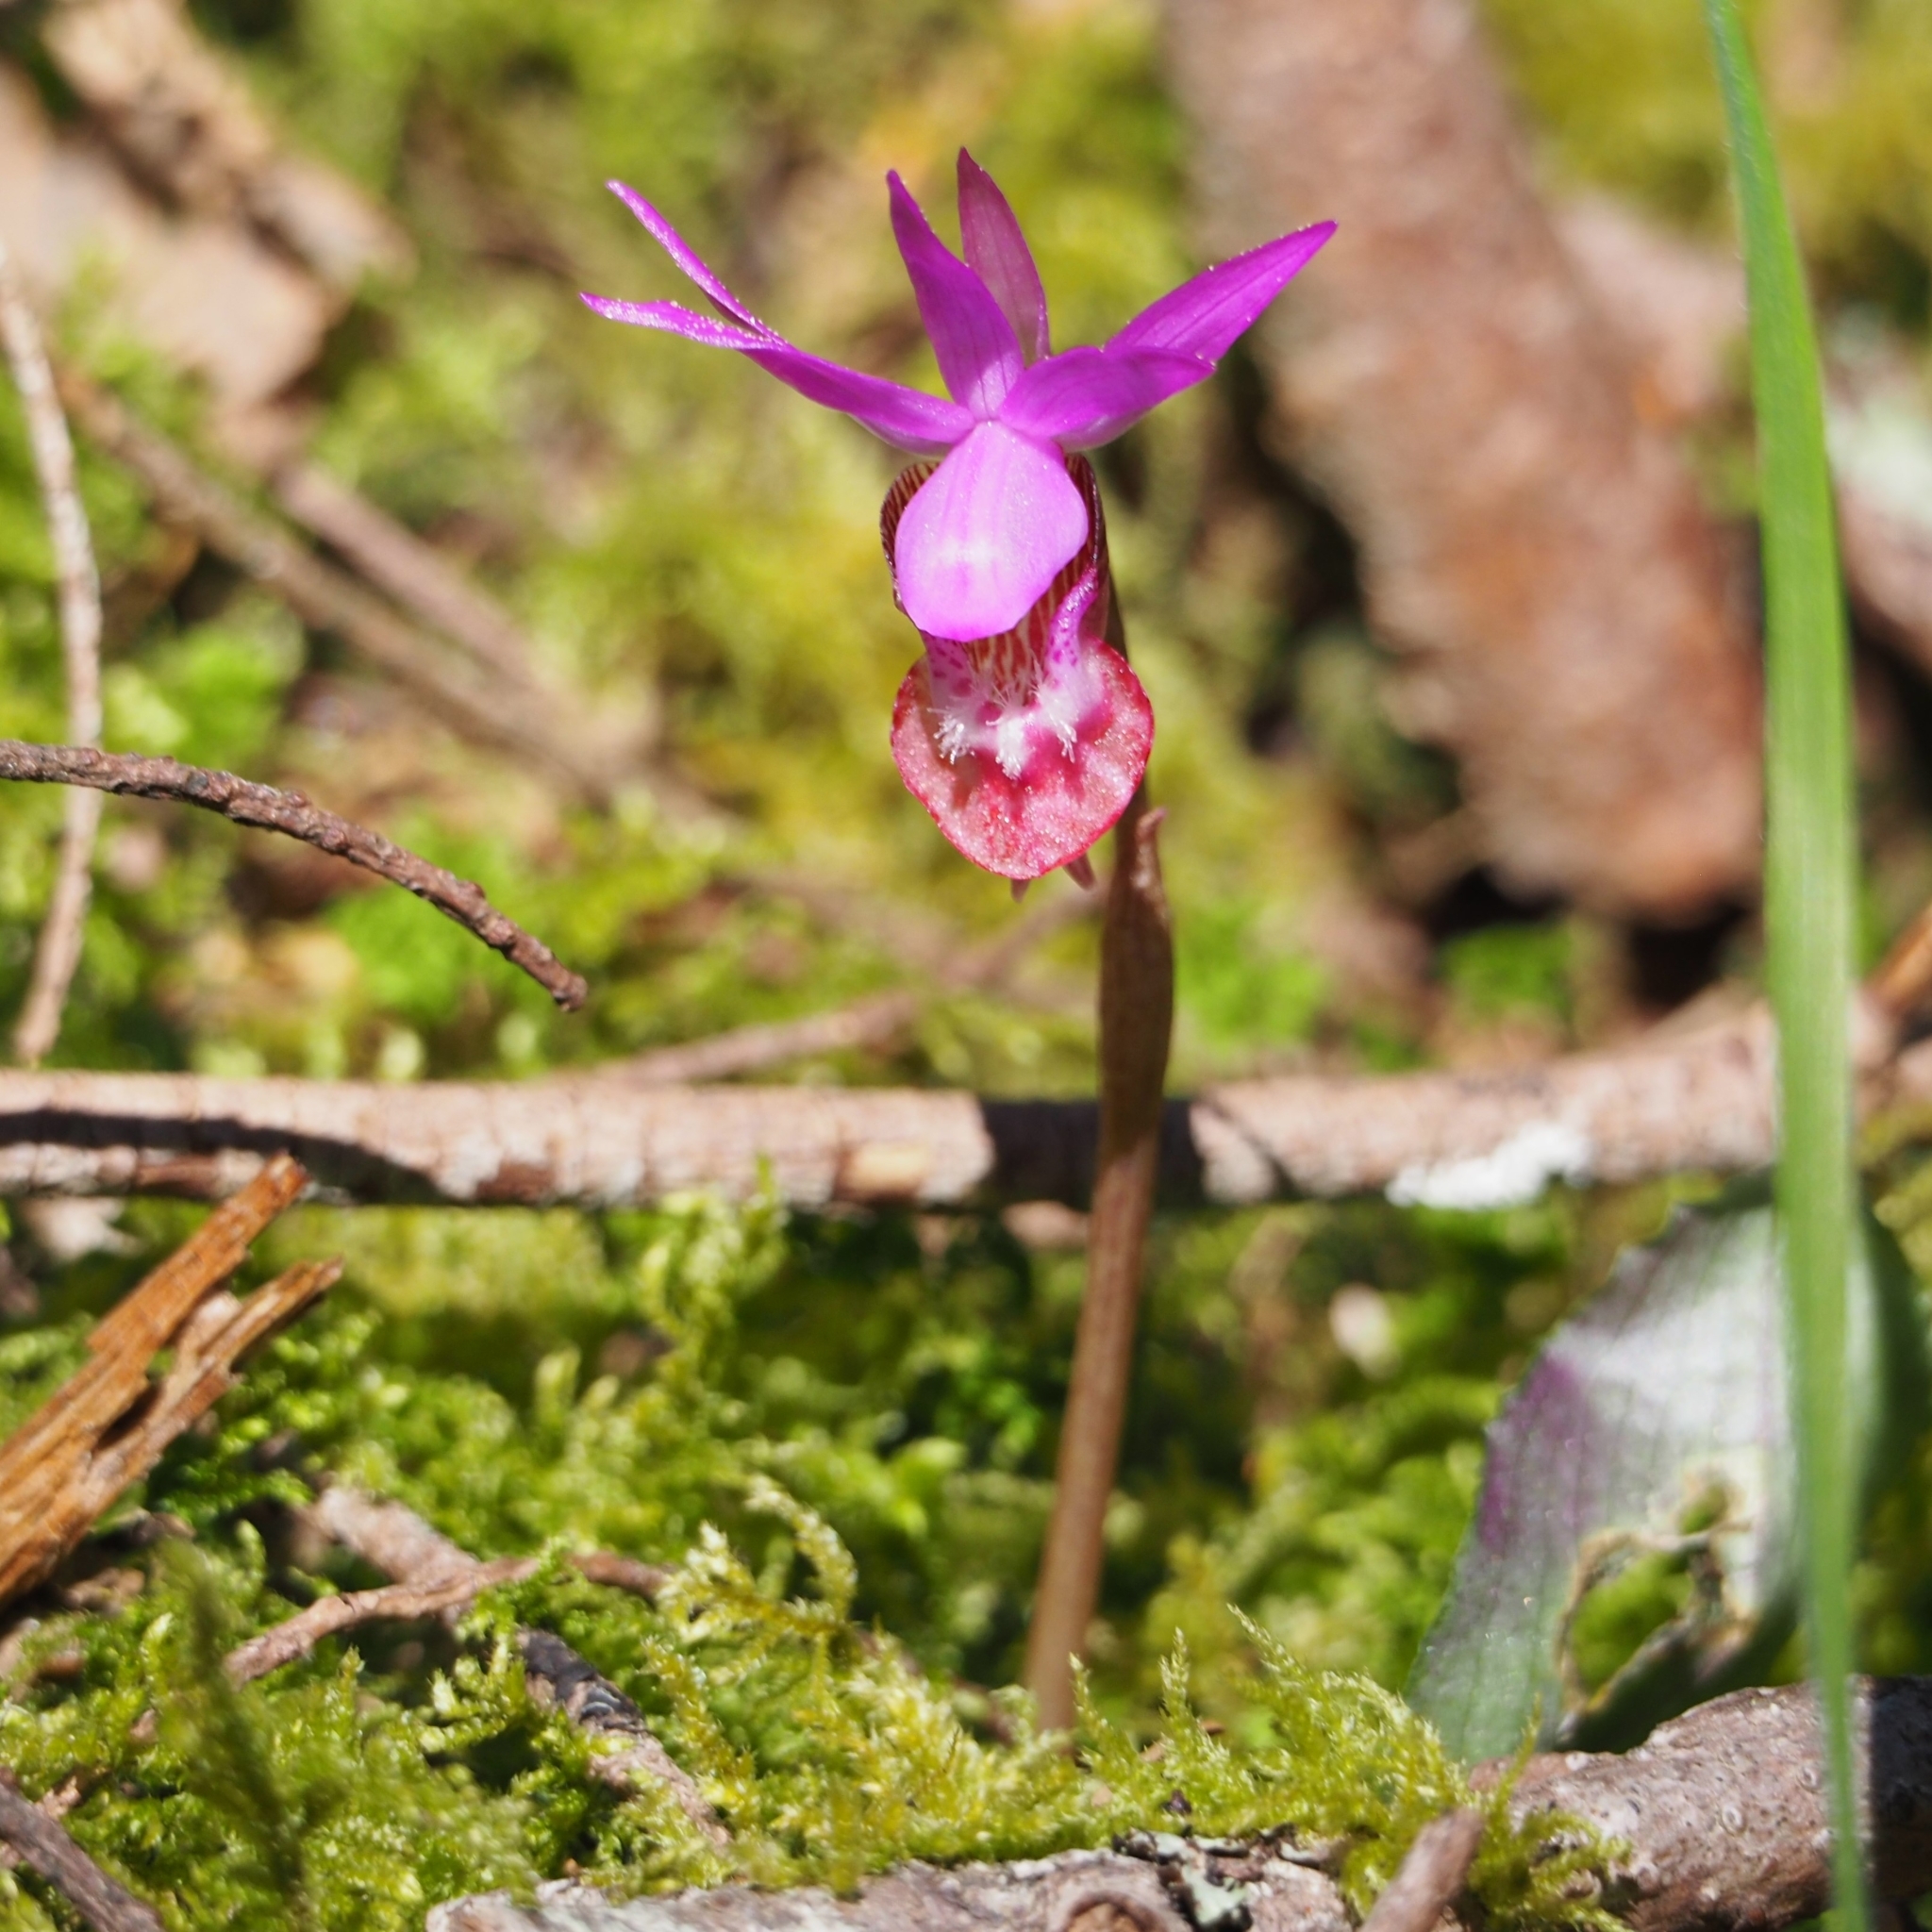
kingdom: Plantae
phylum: Tracheophyta
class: Liliopsida
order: Asparagales
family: Orchidaceae
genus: Calypso
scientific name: Calypso bulbosa
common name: Calypso
